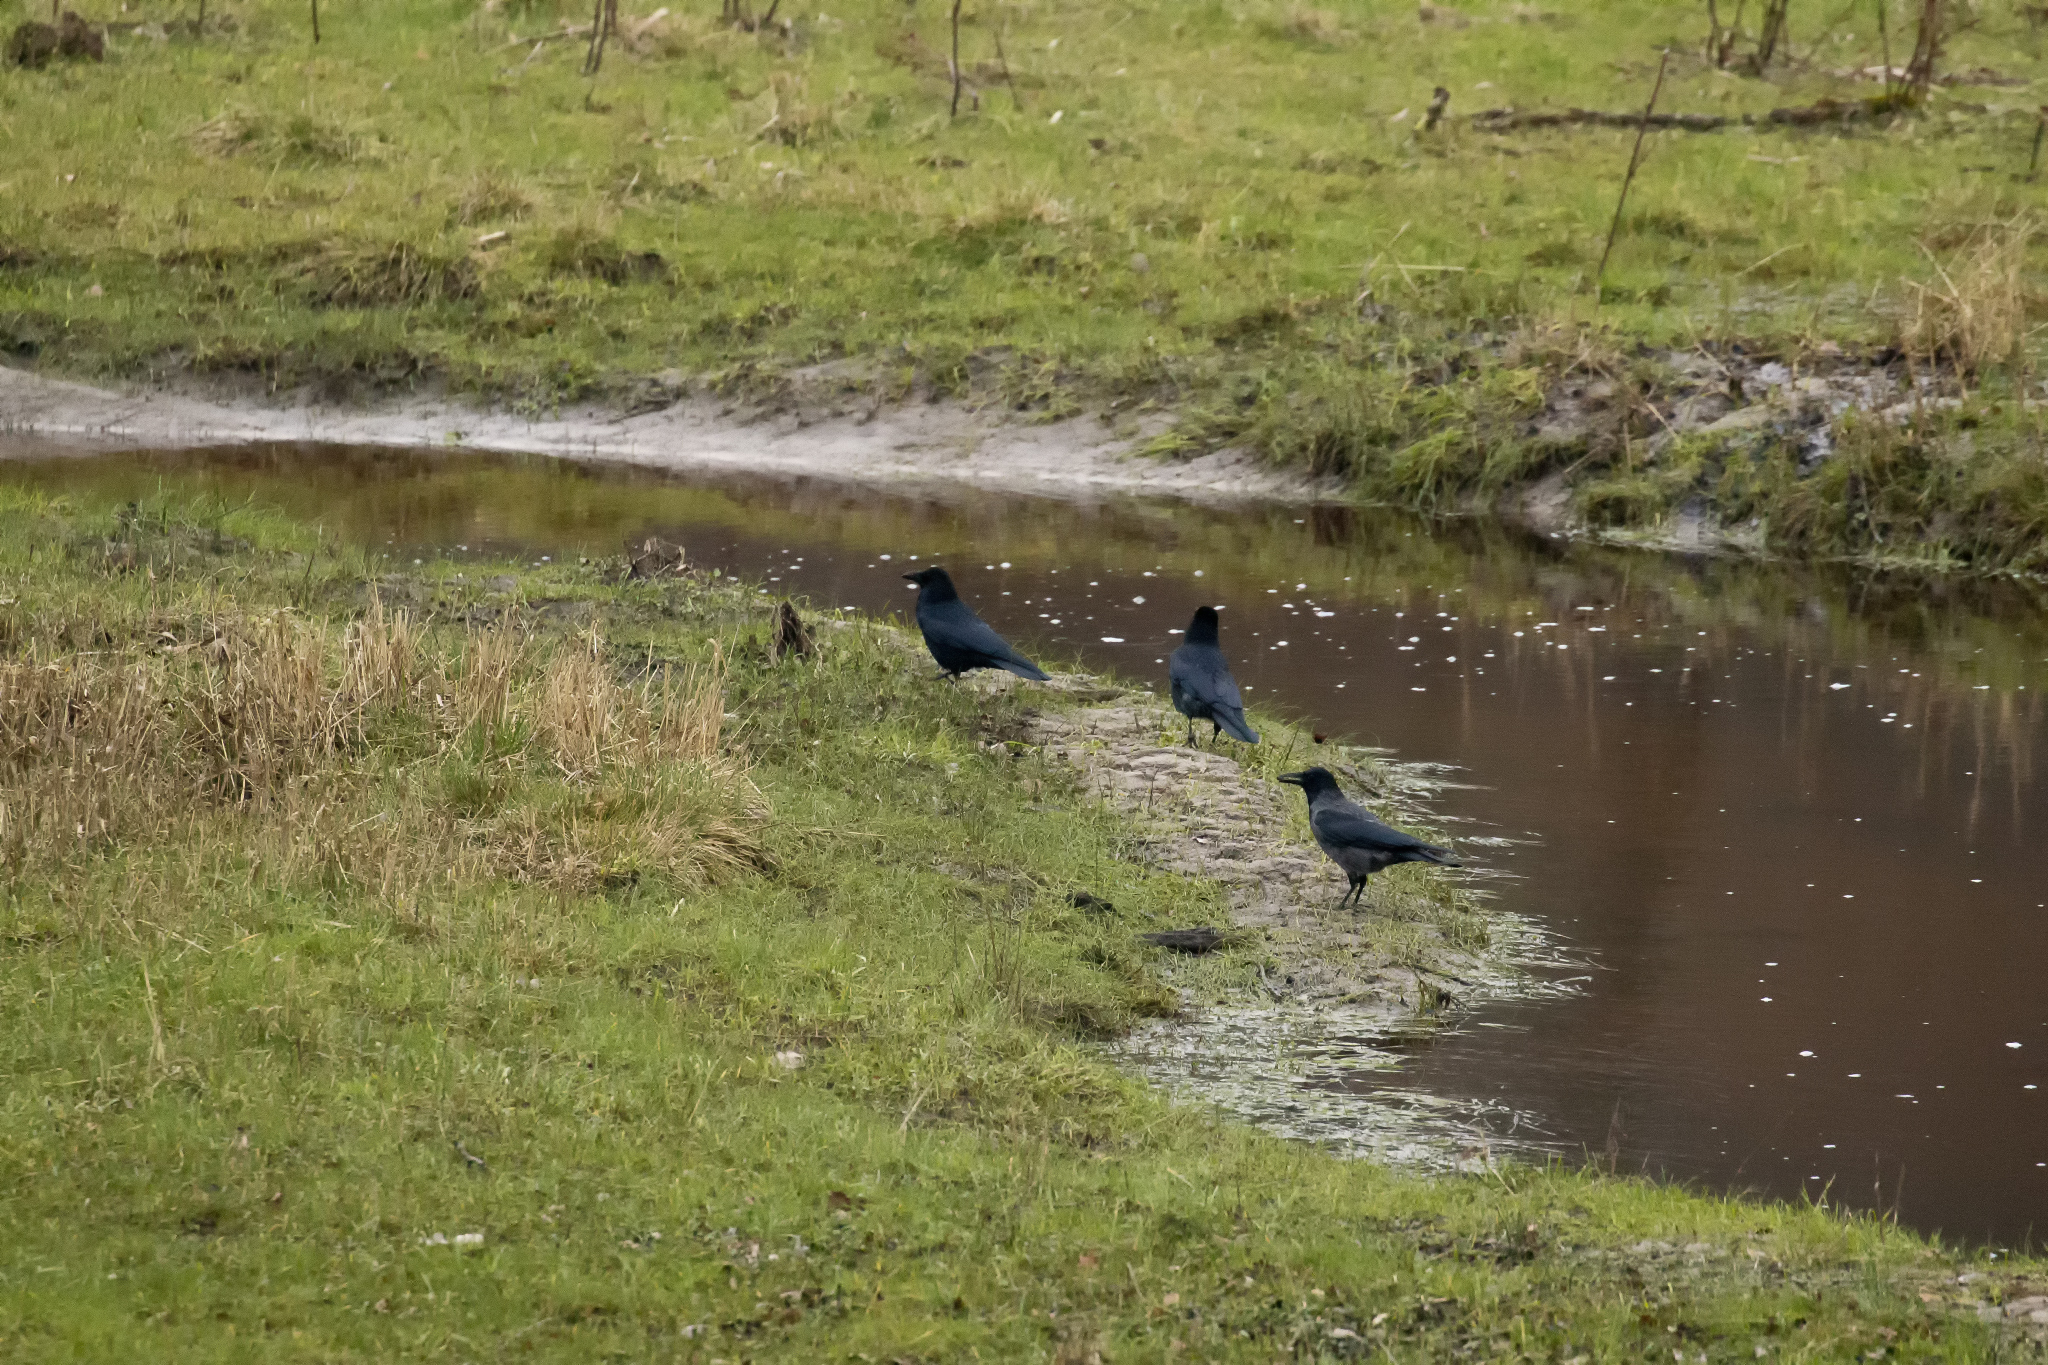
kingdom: Animalia
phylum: Chordata
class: Aves
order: Passeriformes
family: Corvidae
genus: Corvus
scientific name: Corvus corone
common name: Carrion crow
